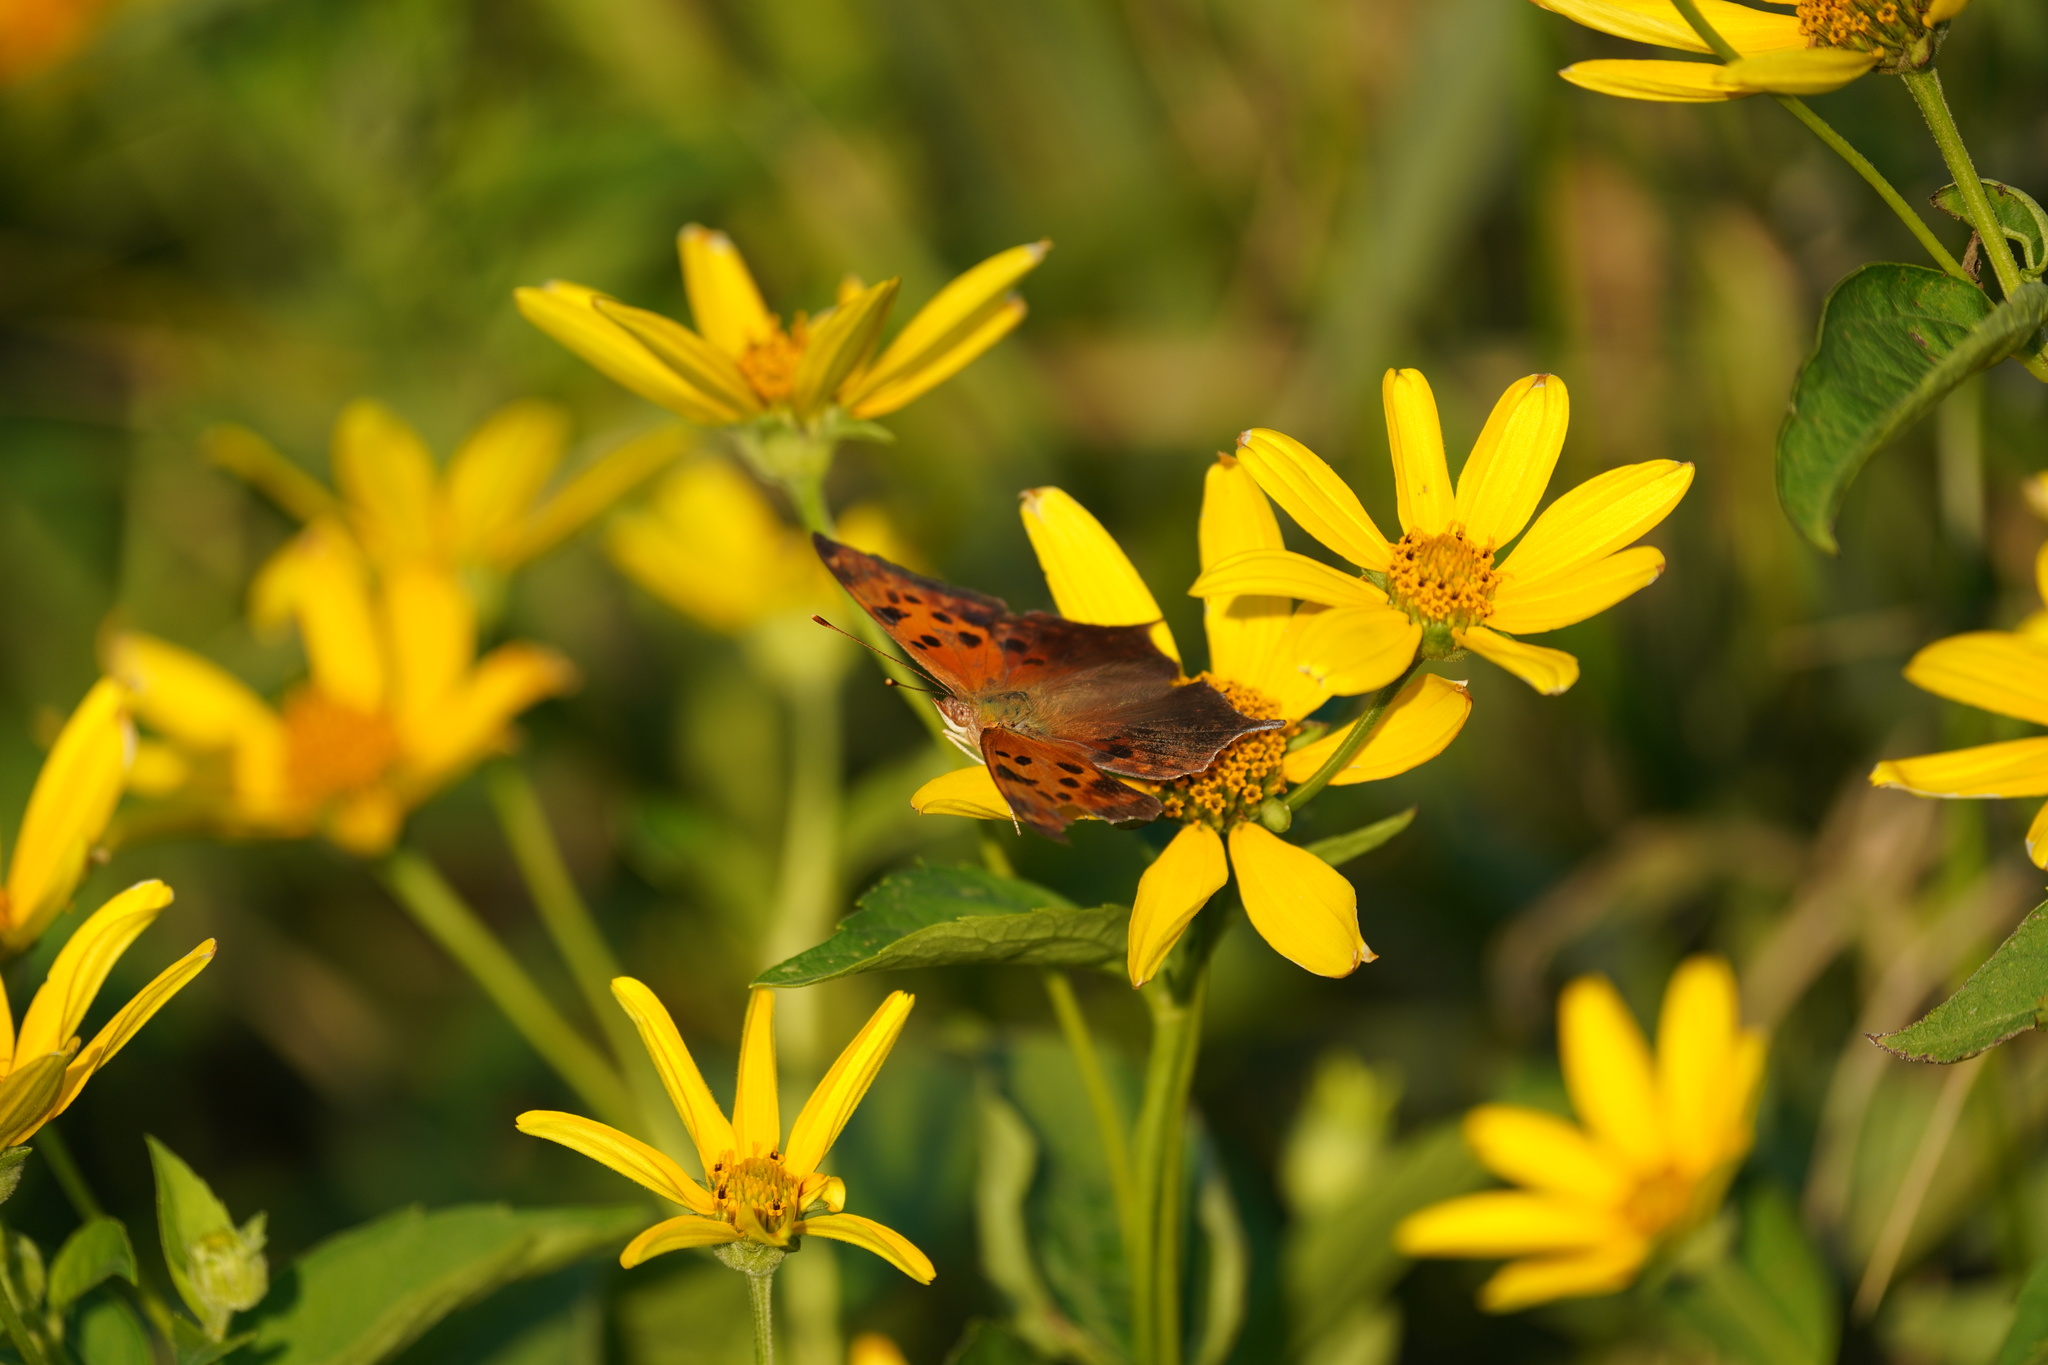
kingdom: Animalia
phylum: Arthropoda
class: Insecta
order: Lepidoptera
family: Nymphalidae
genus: Polygonia
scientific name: Polygonia interrogationis
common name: Question mark
